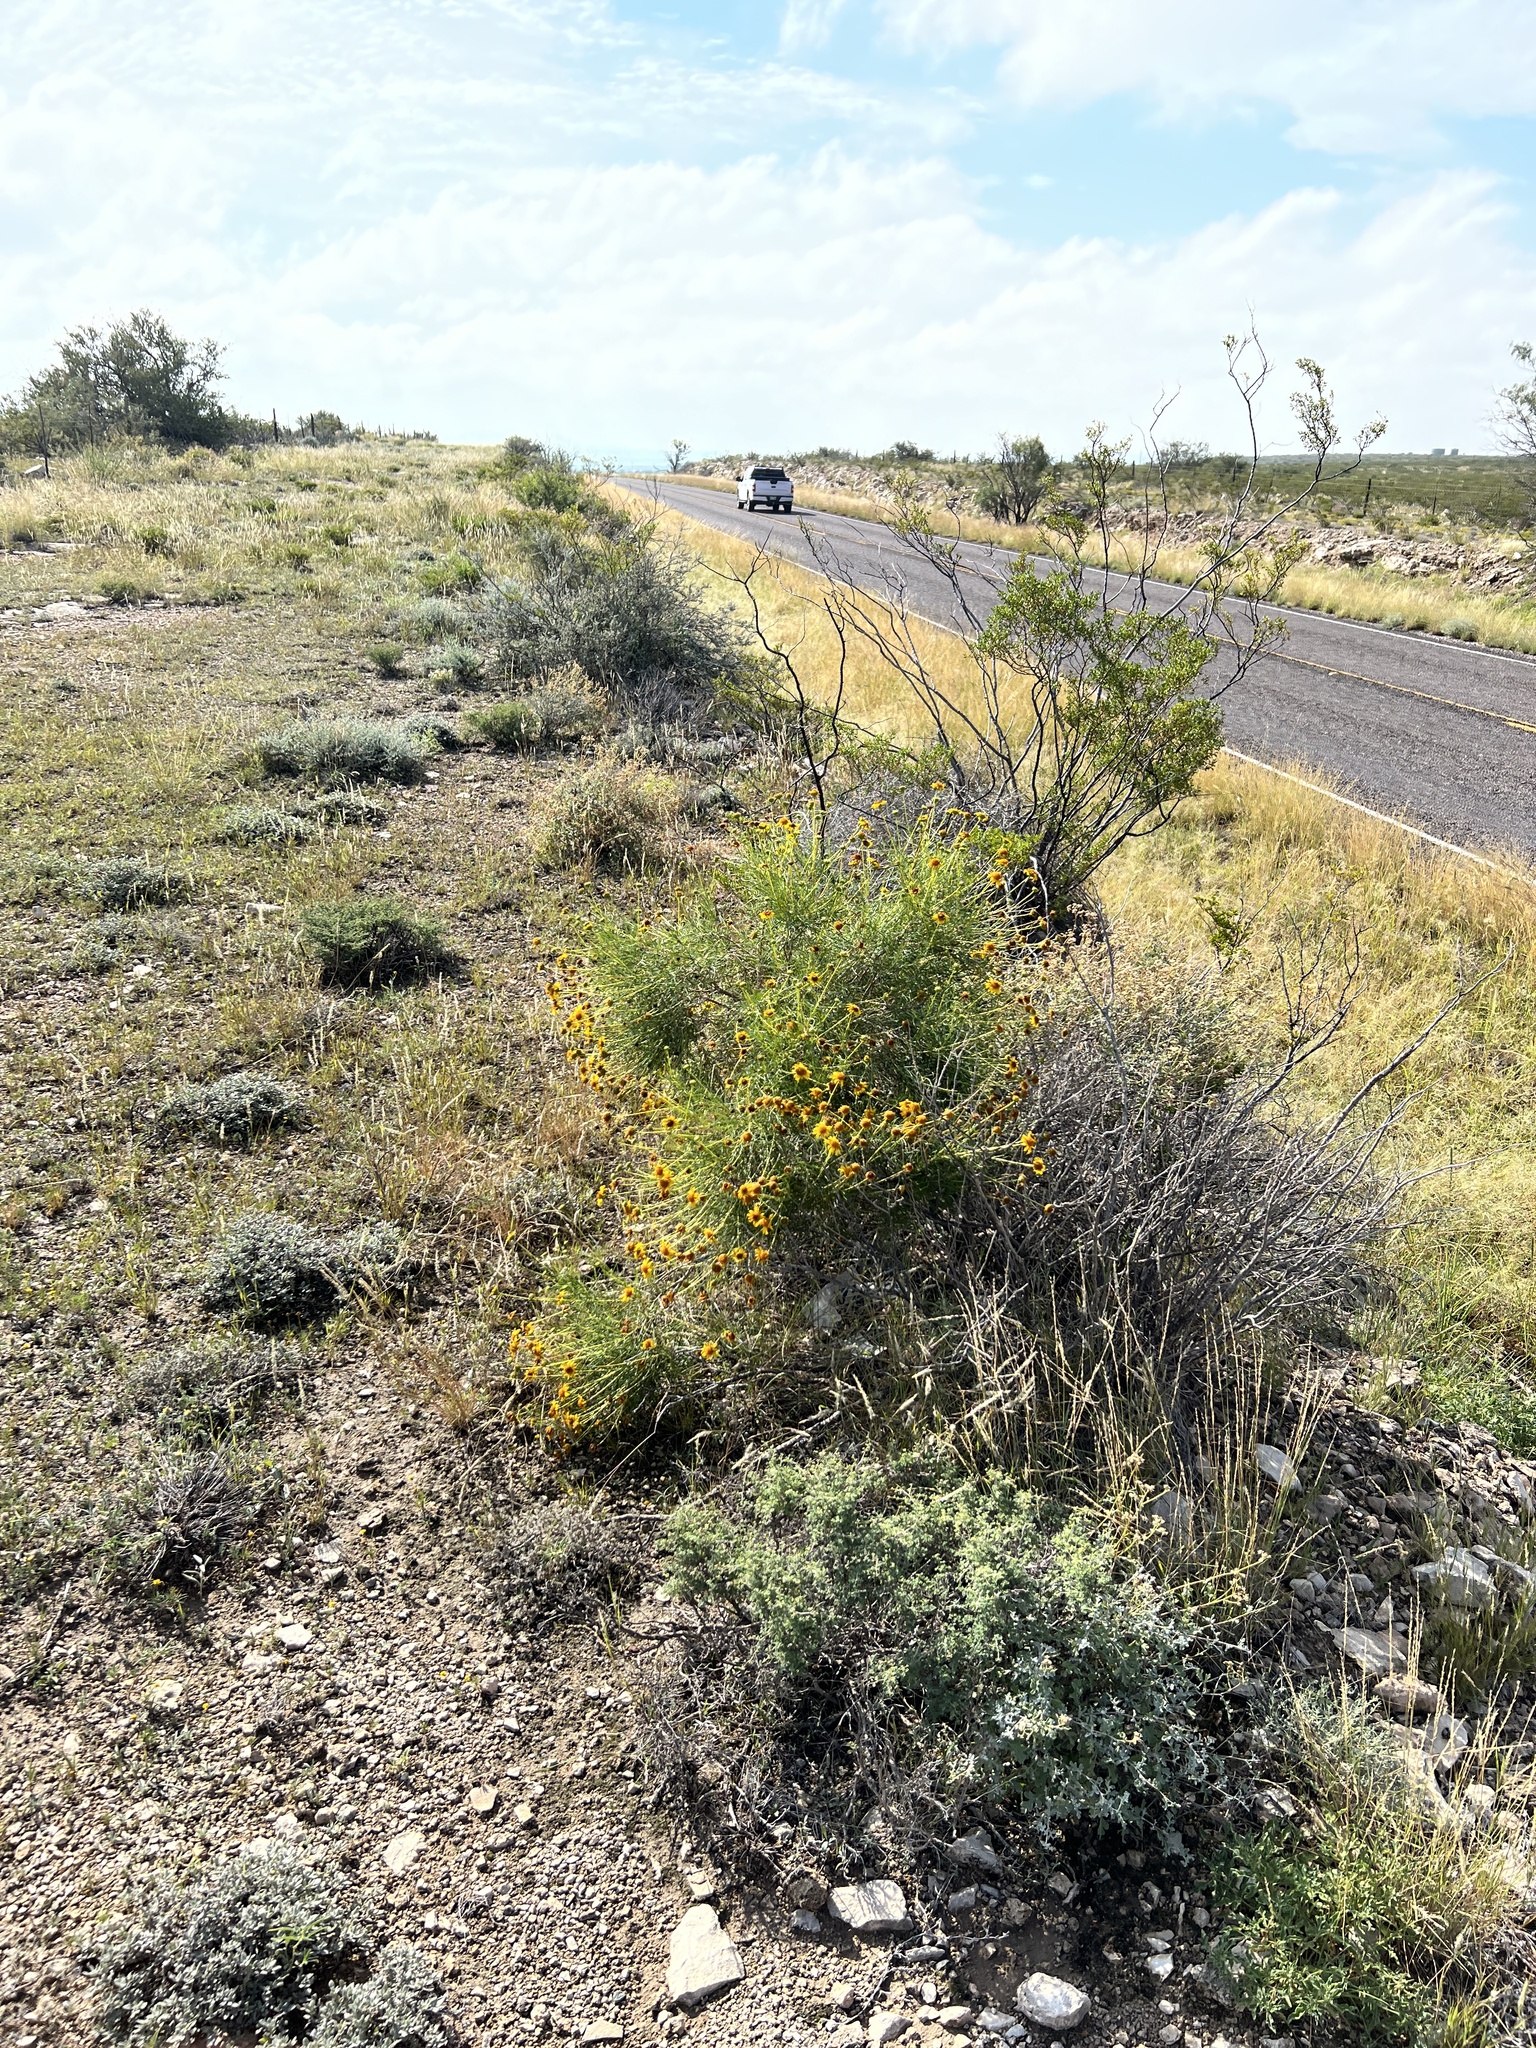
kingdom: Plantae
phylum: Tracheophyta
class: Magnoliopsida
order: Asterales
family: Asteraceae
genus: Sidneya
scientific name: Sidneya tenuifolia
